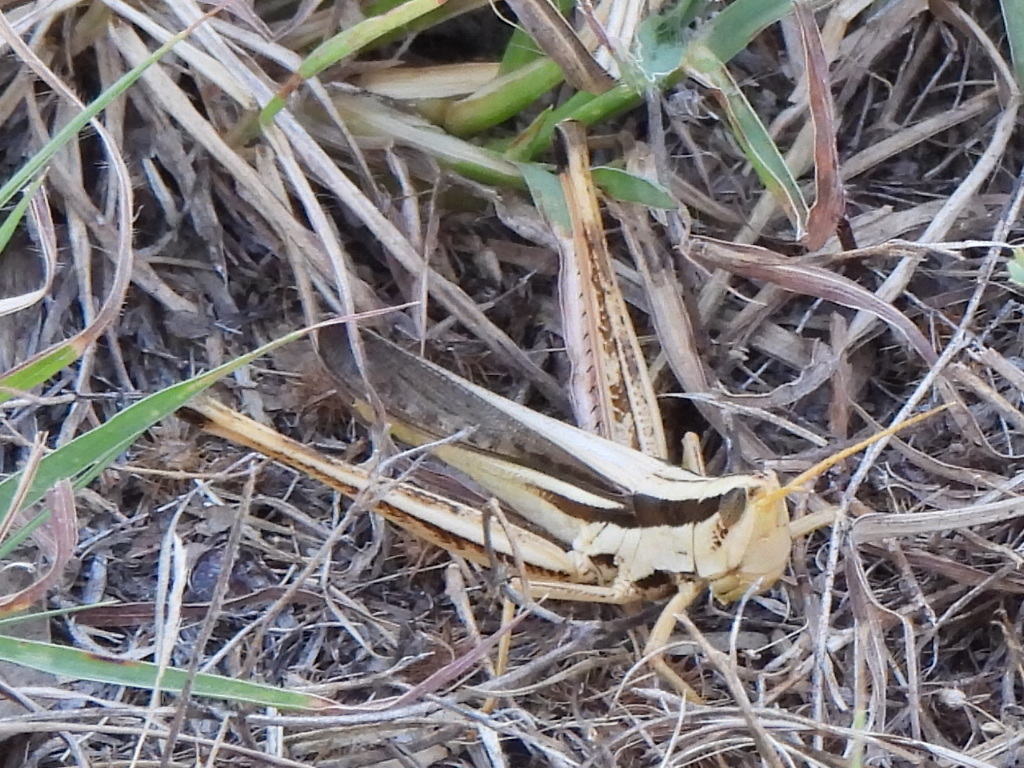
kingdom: Animalia
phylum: Arthropoda
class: Insecta
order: Orthoptera
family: Acrididae
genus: Mermiria
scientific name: Mermiria bivittata
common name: Two-striped mermiria grasshopper
